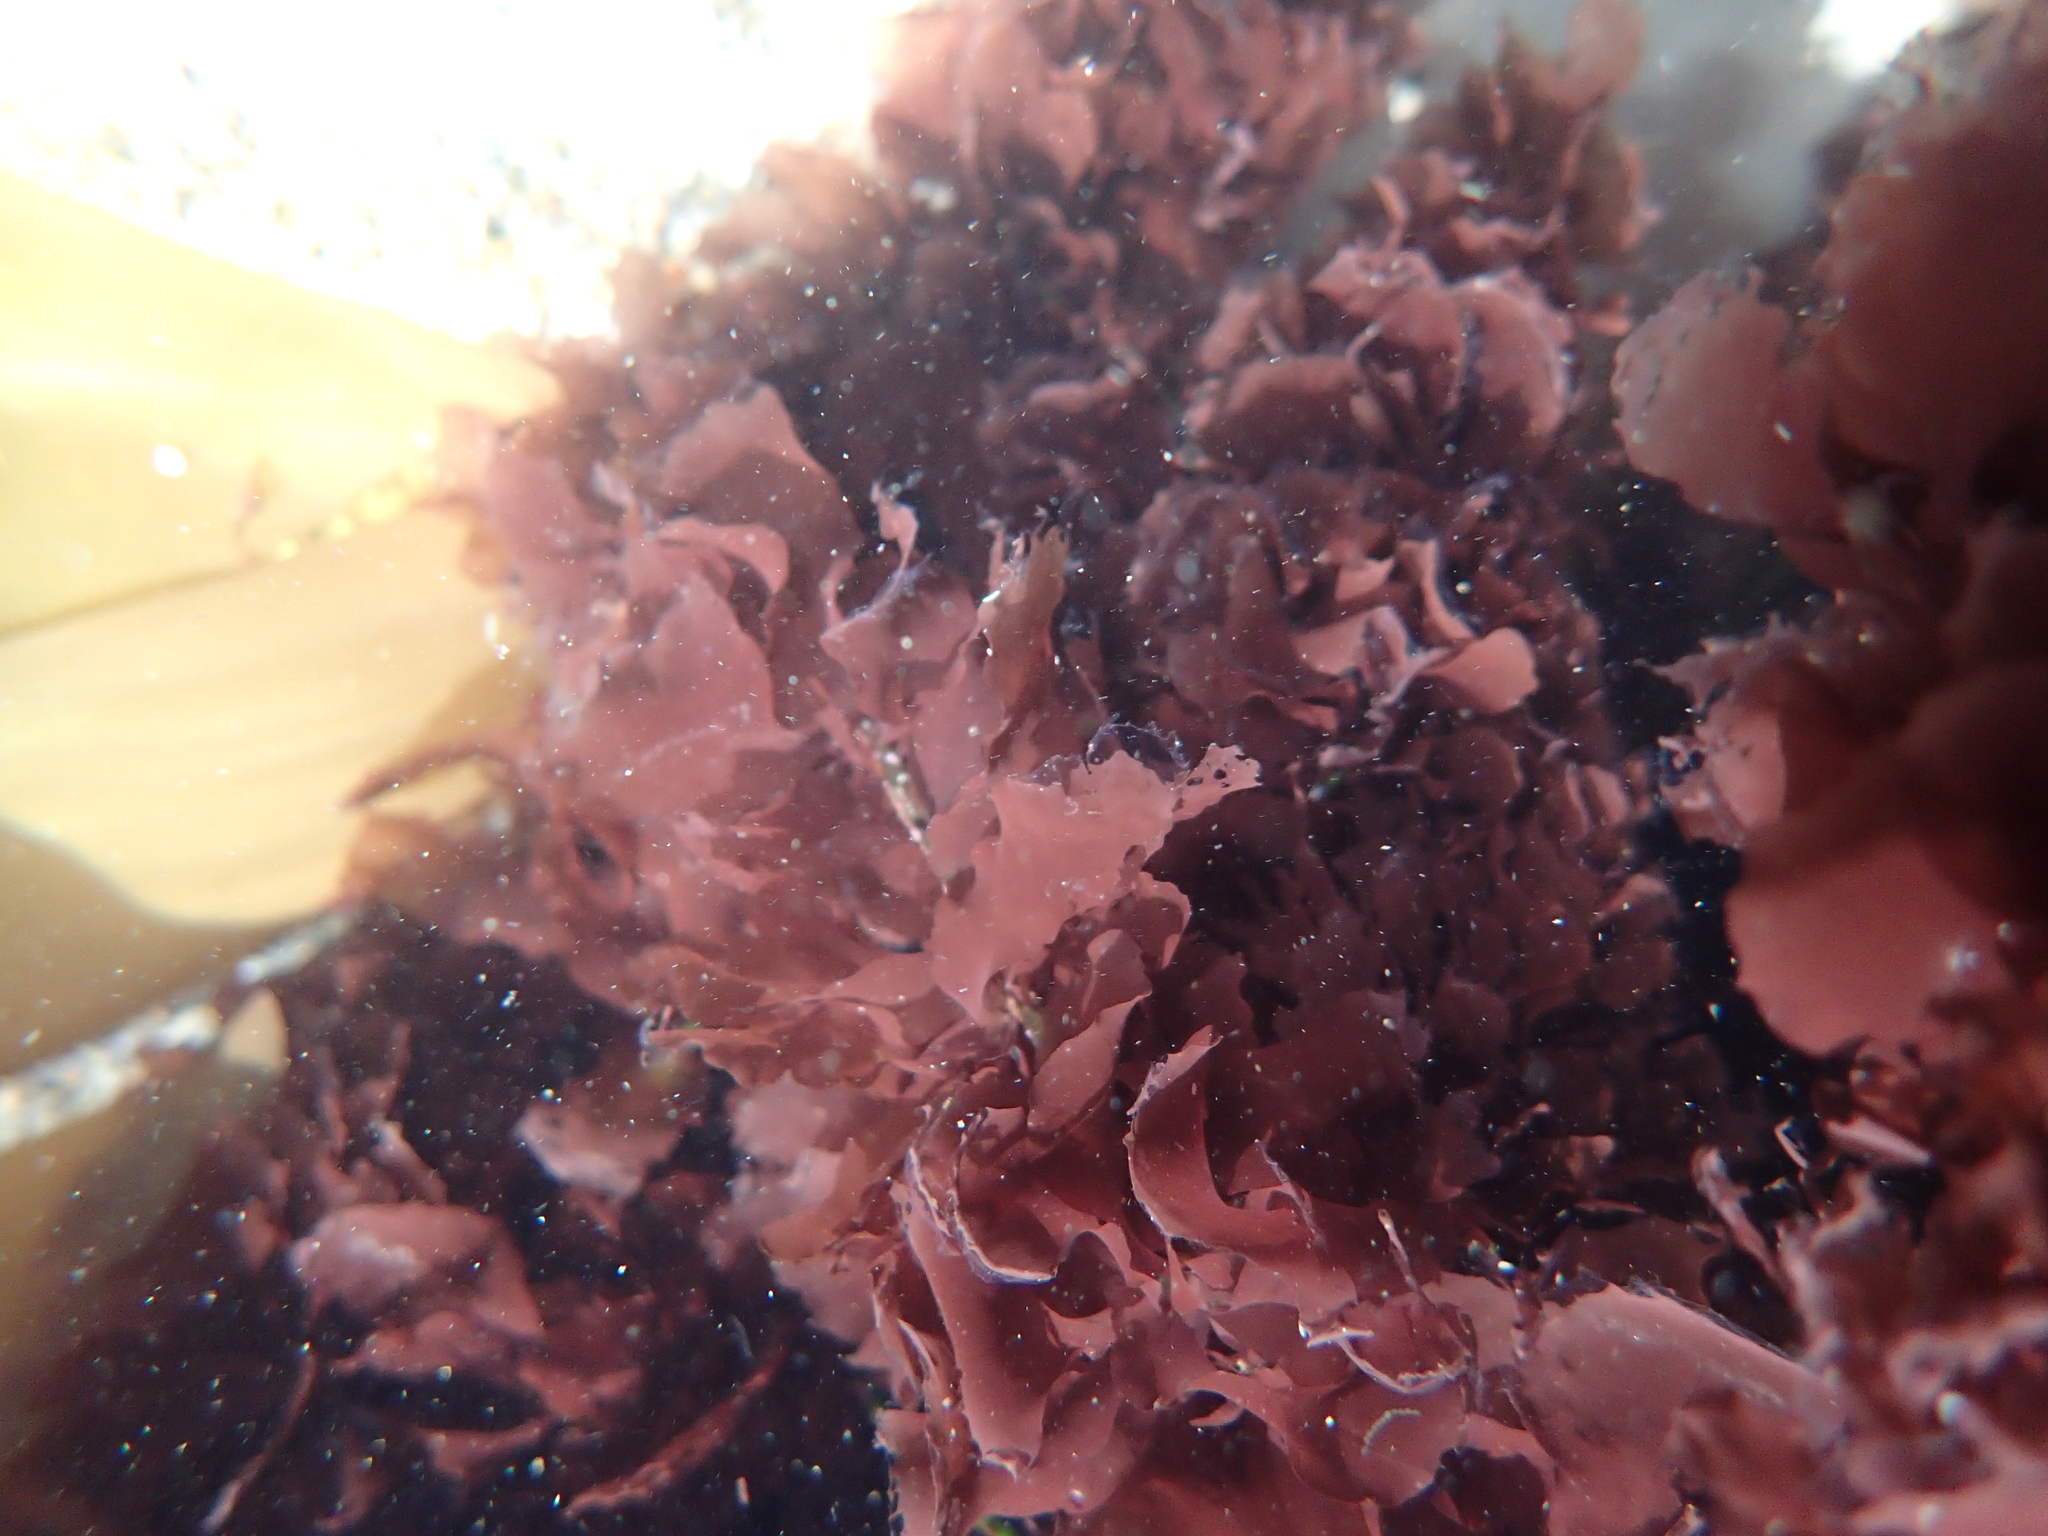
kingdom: Plantae
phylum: Rhodophyta
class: Compsopogonophyceae
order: Erythropeltidales
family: Erythrotrichiaceae
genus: Smithora
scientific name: Smithora naiadum
